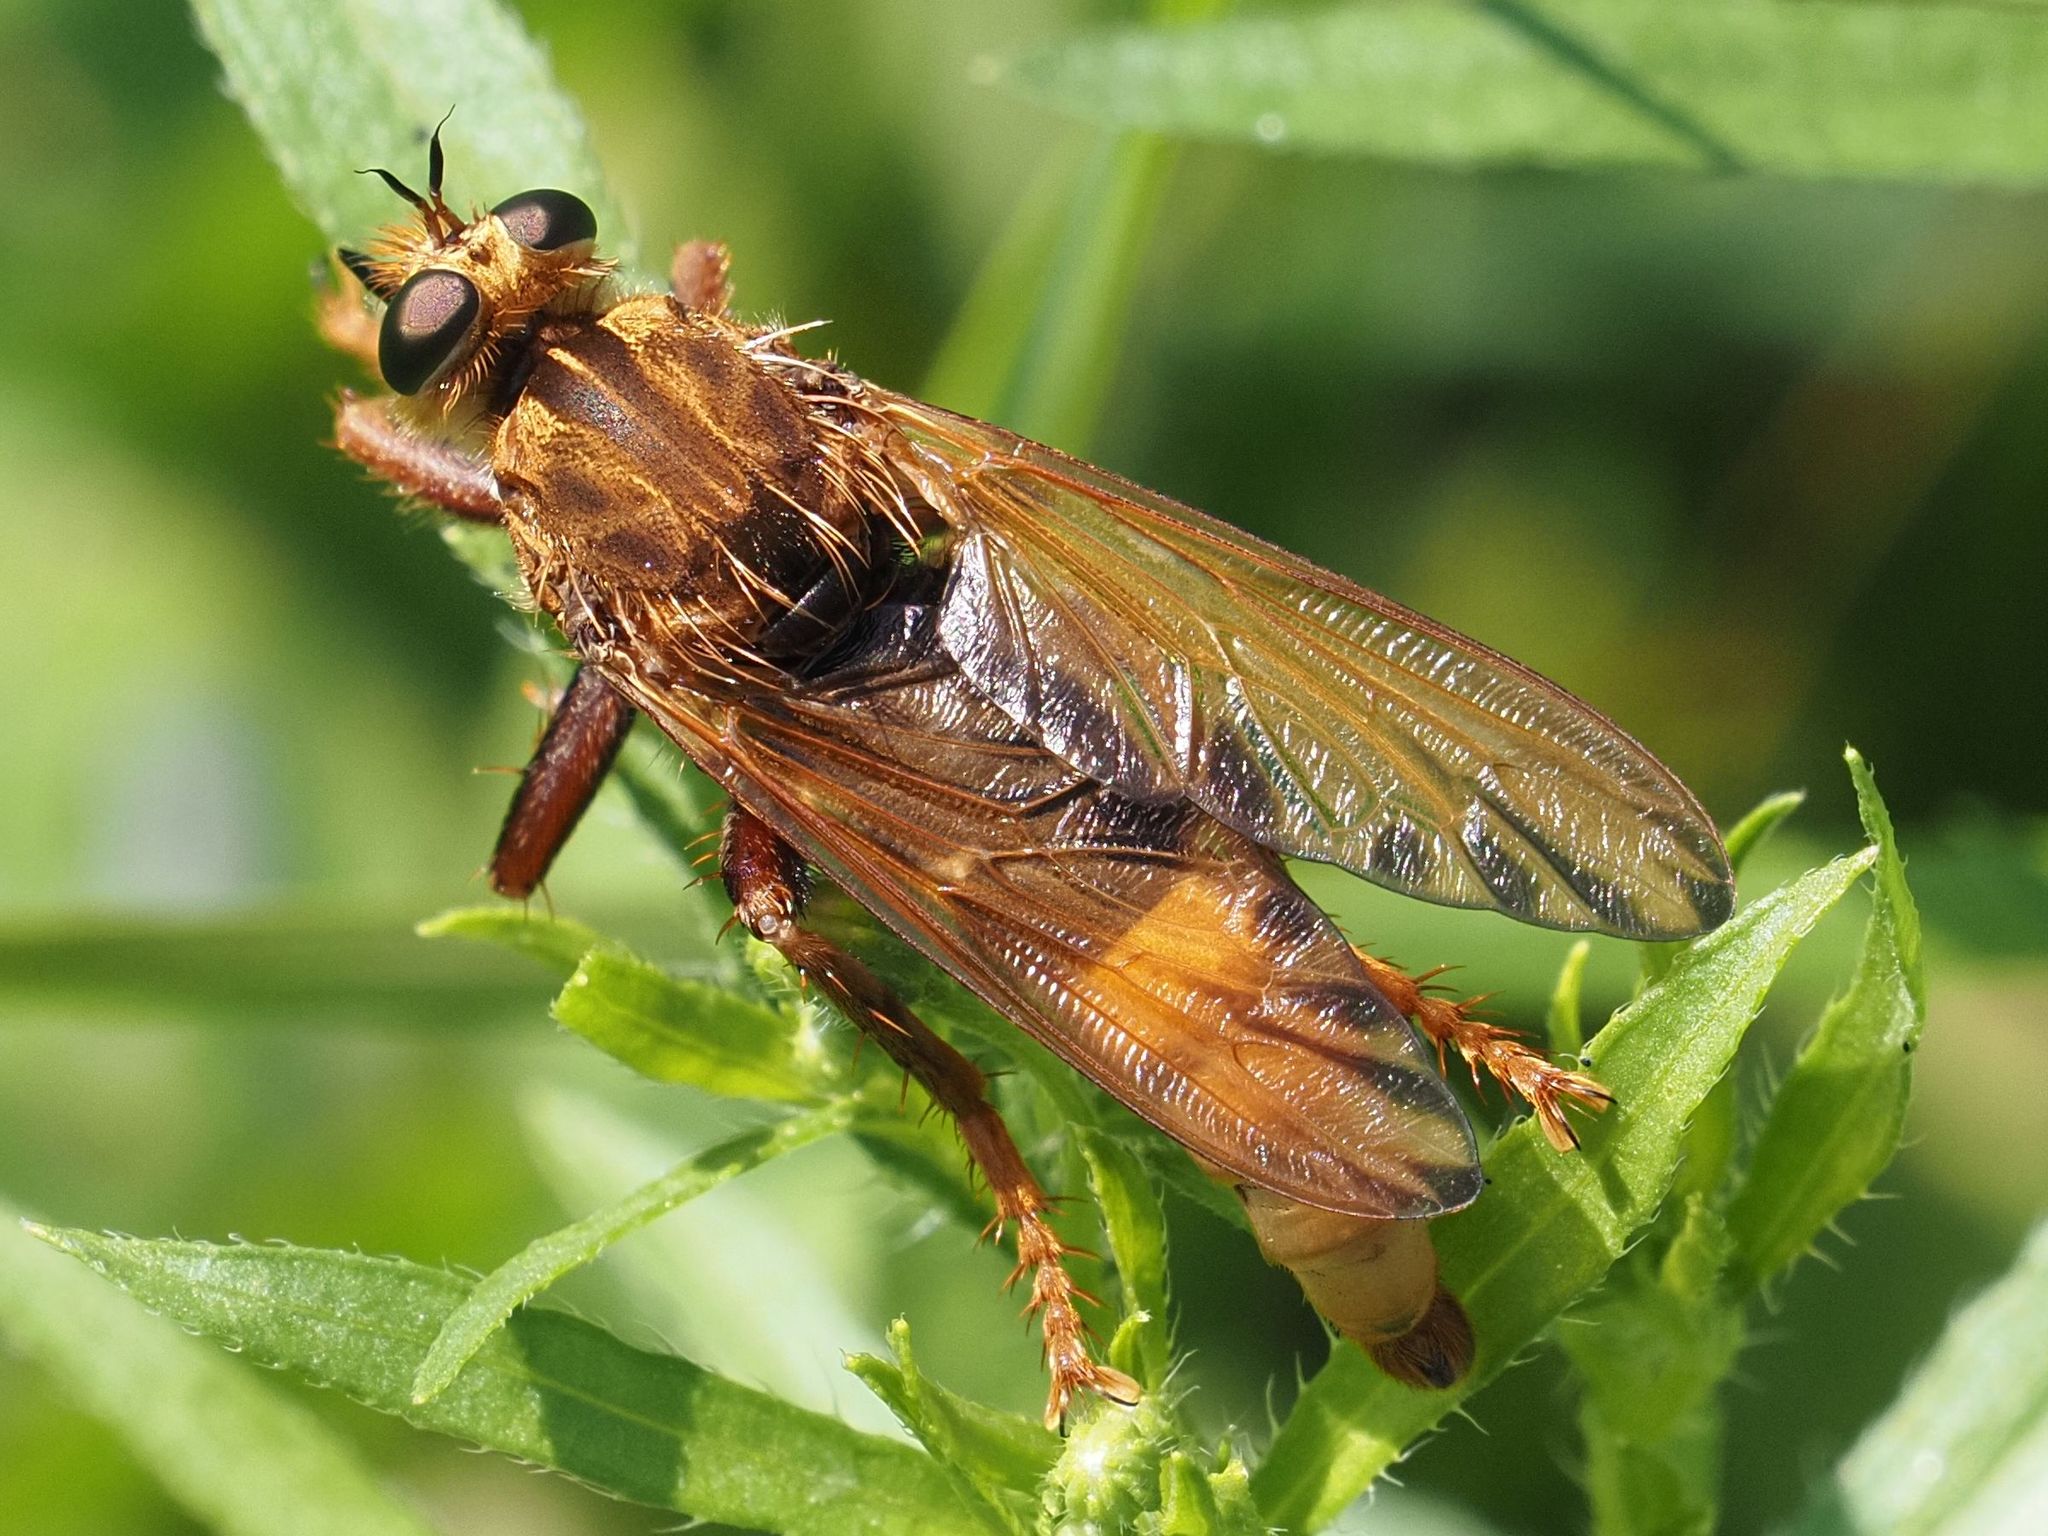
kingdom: Animalia
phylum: Arthropoda
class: Insecta
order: Diptera
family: Asilidae
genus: Asilus
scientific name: Asilus crabroniformis
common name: Hornet robberfly
